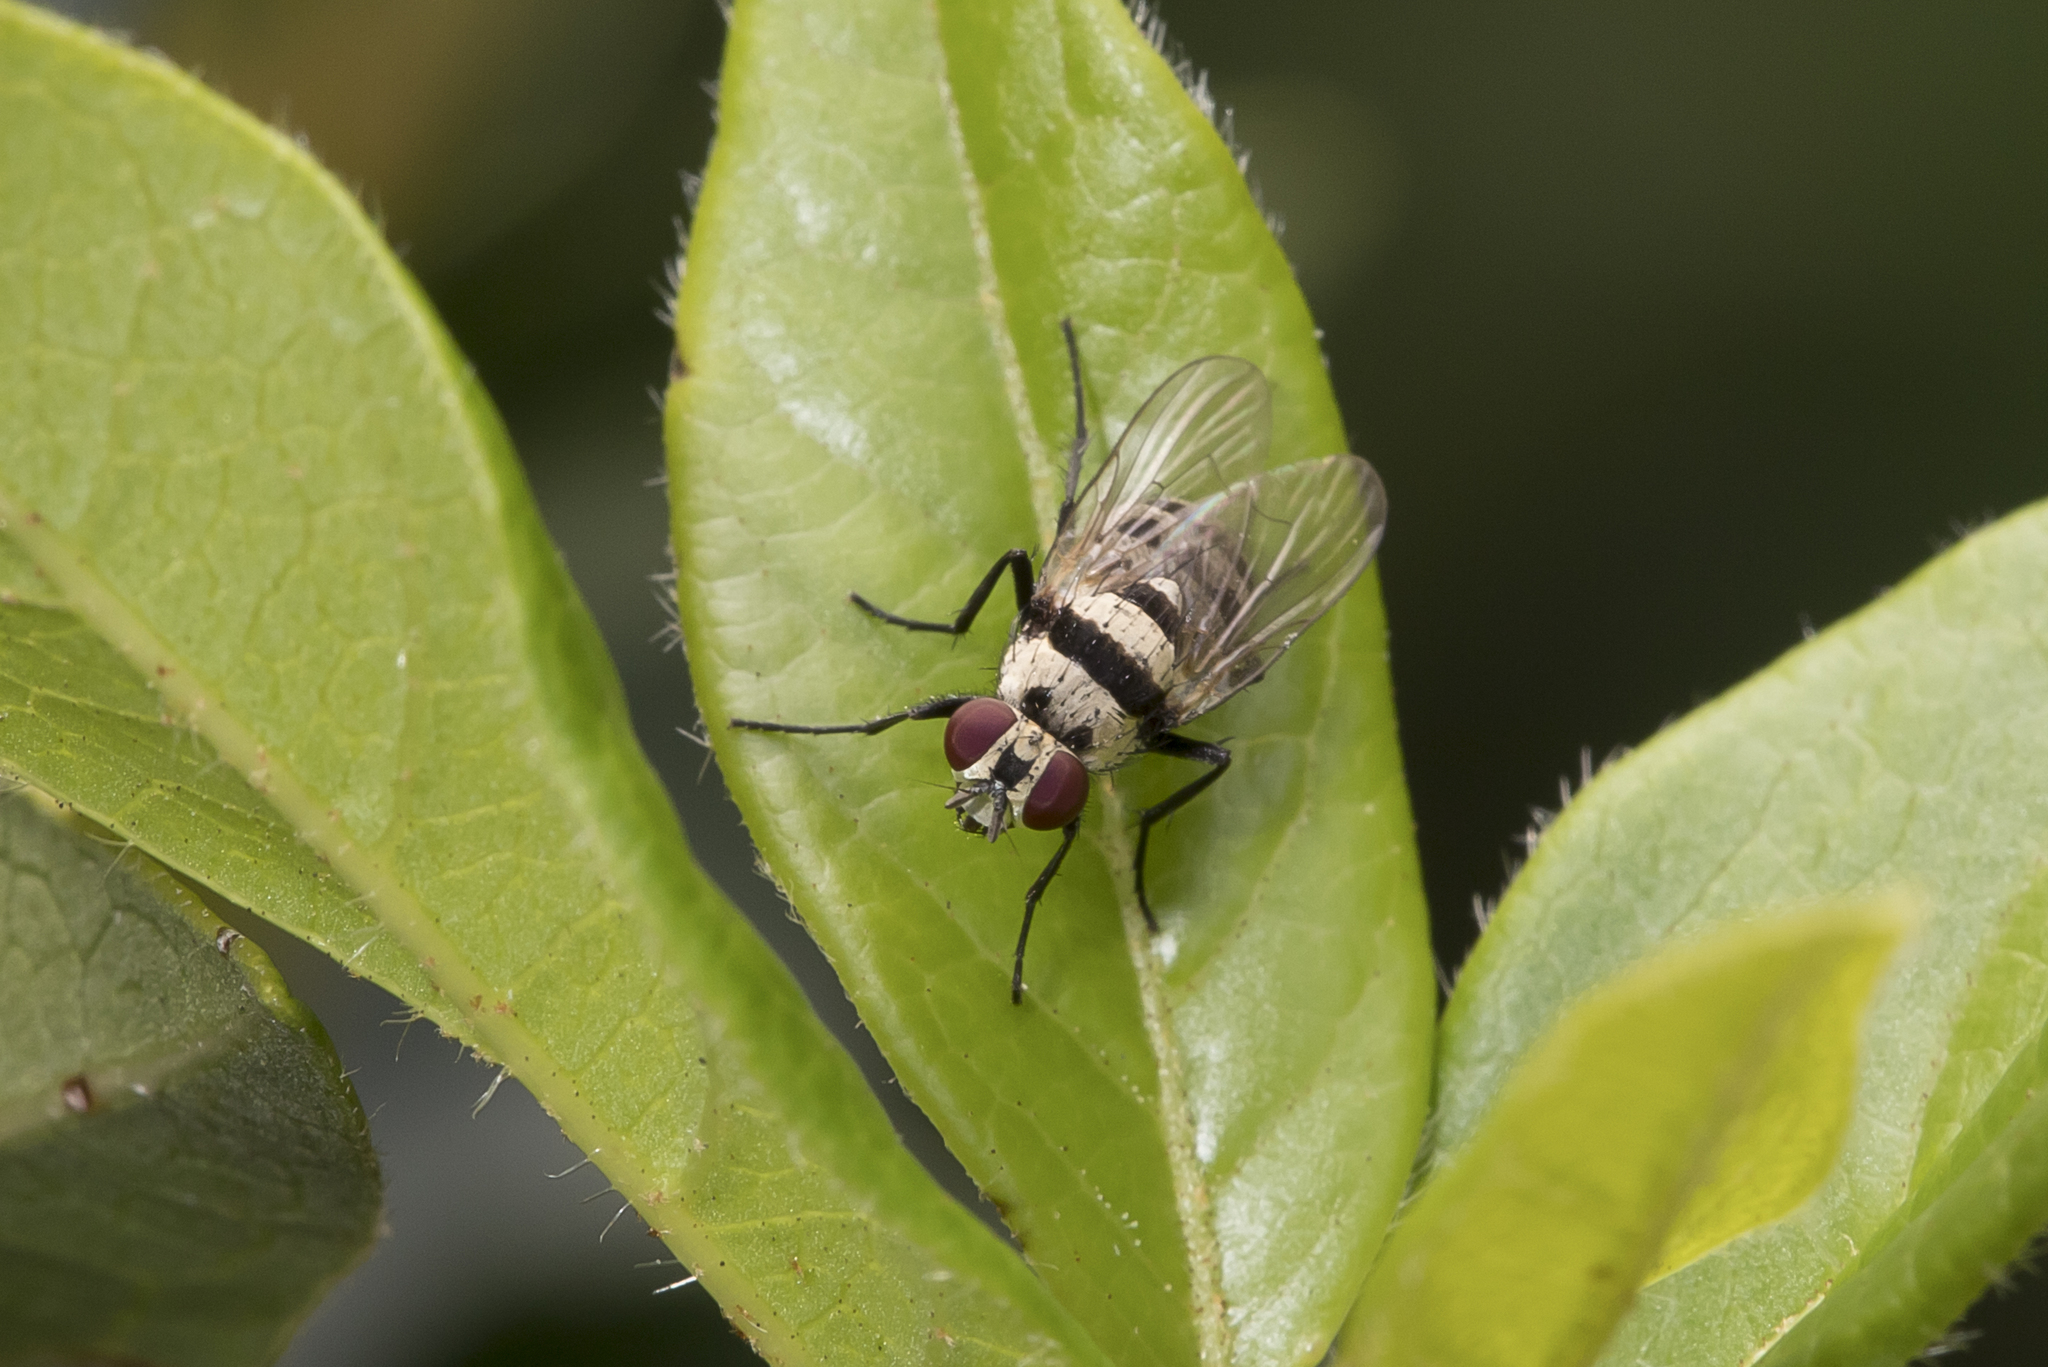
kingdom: Animalia
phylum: Arthropoda
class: Insecta
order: Diptera
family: Anthomyiidae
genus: Anthomyia
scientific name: Anthomyia vicarians
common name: Fly
